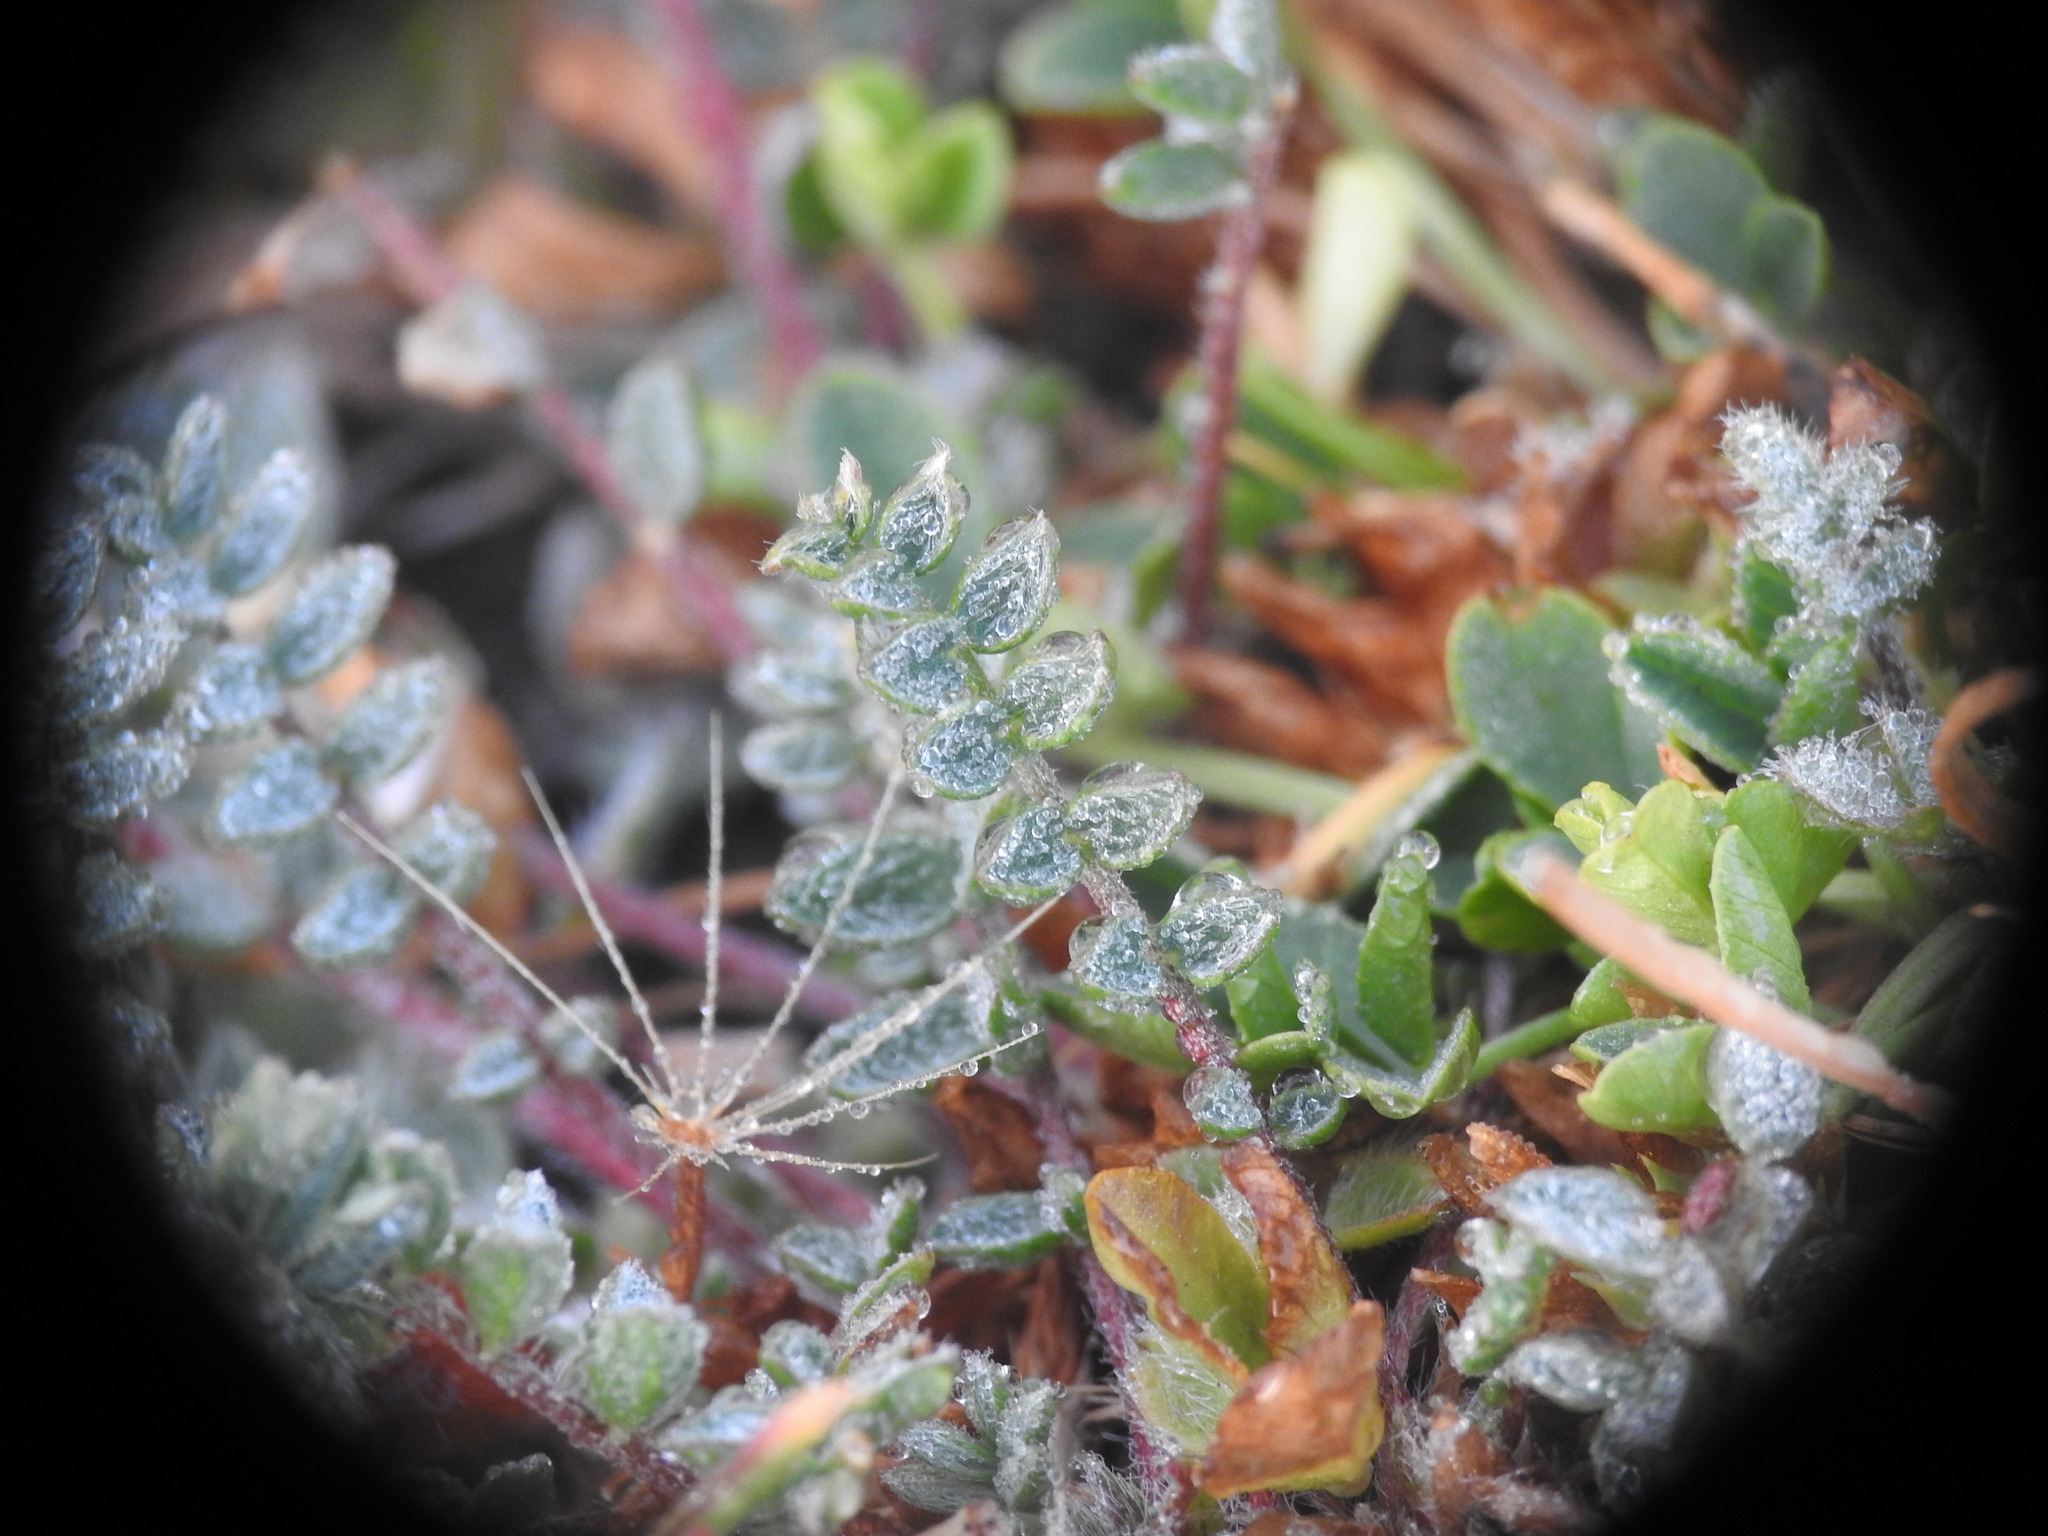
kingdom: Plantae
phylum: Tracheophyta
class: Magnoliopsida
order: Fabales
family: Fabaceae
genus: Oxytropis
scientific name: Oxytropis helvetica
